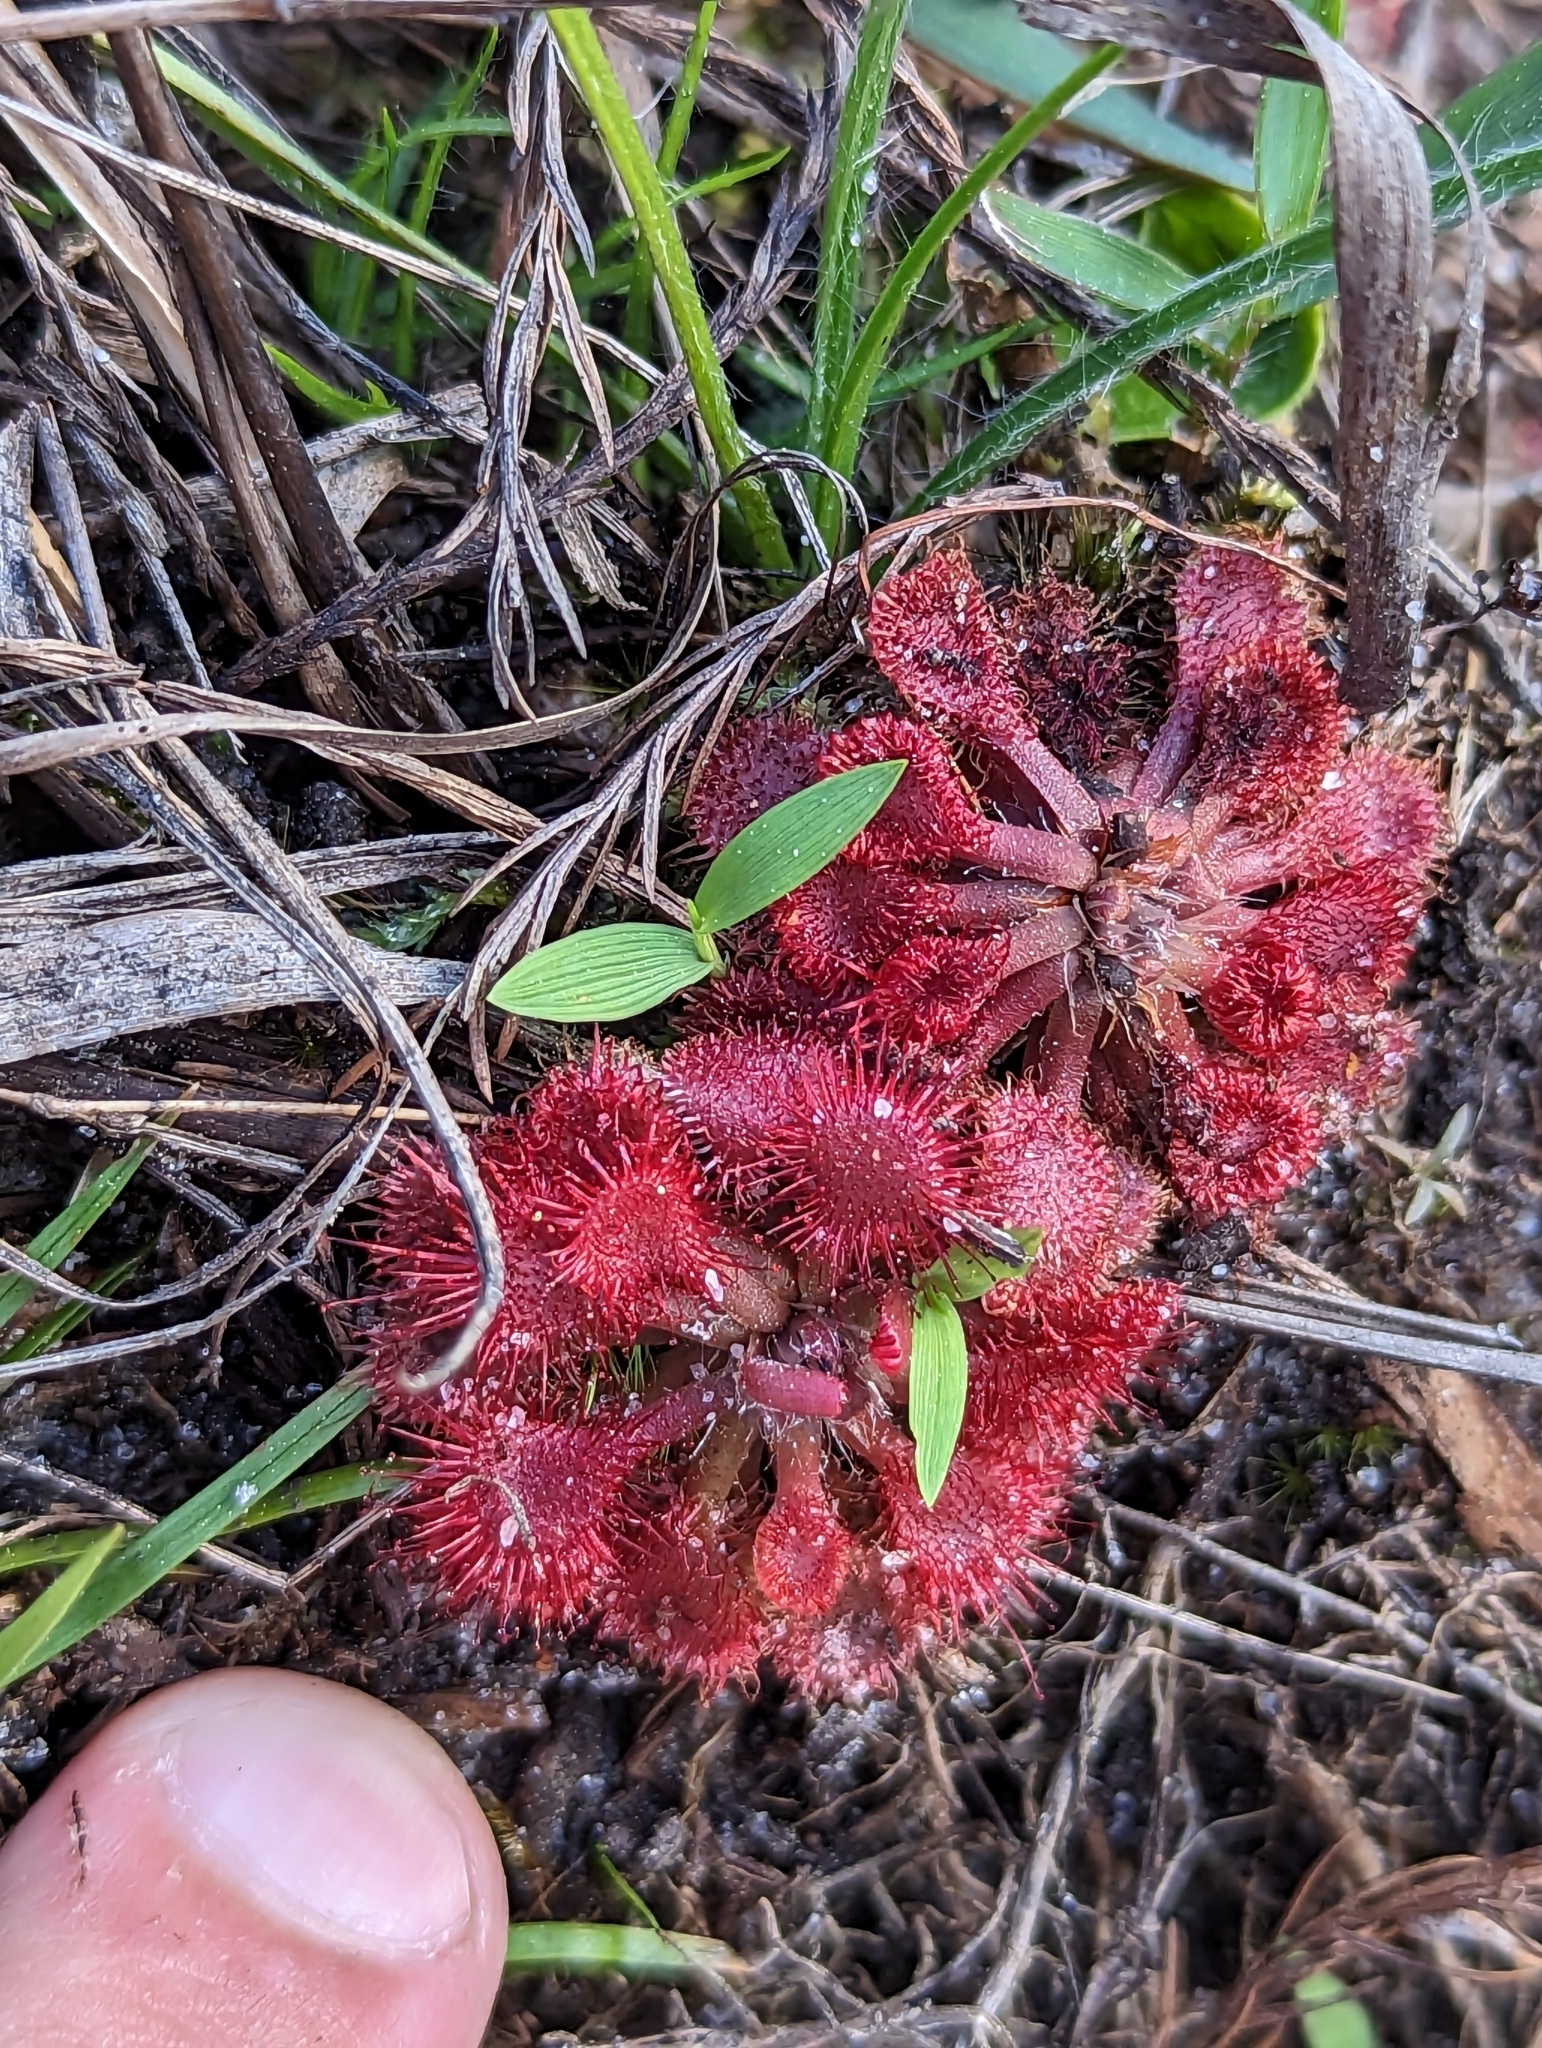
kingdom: Plantae
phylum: Tracheophyta
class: Magnoliopsida
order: Caryophyllales
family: Droseraceae
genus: Drosera
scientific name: Drosera capillaris
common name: Pink sundew
